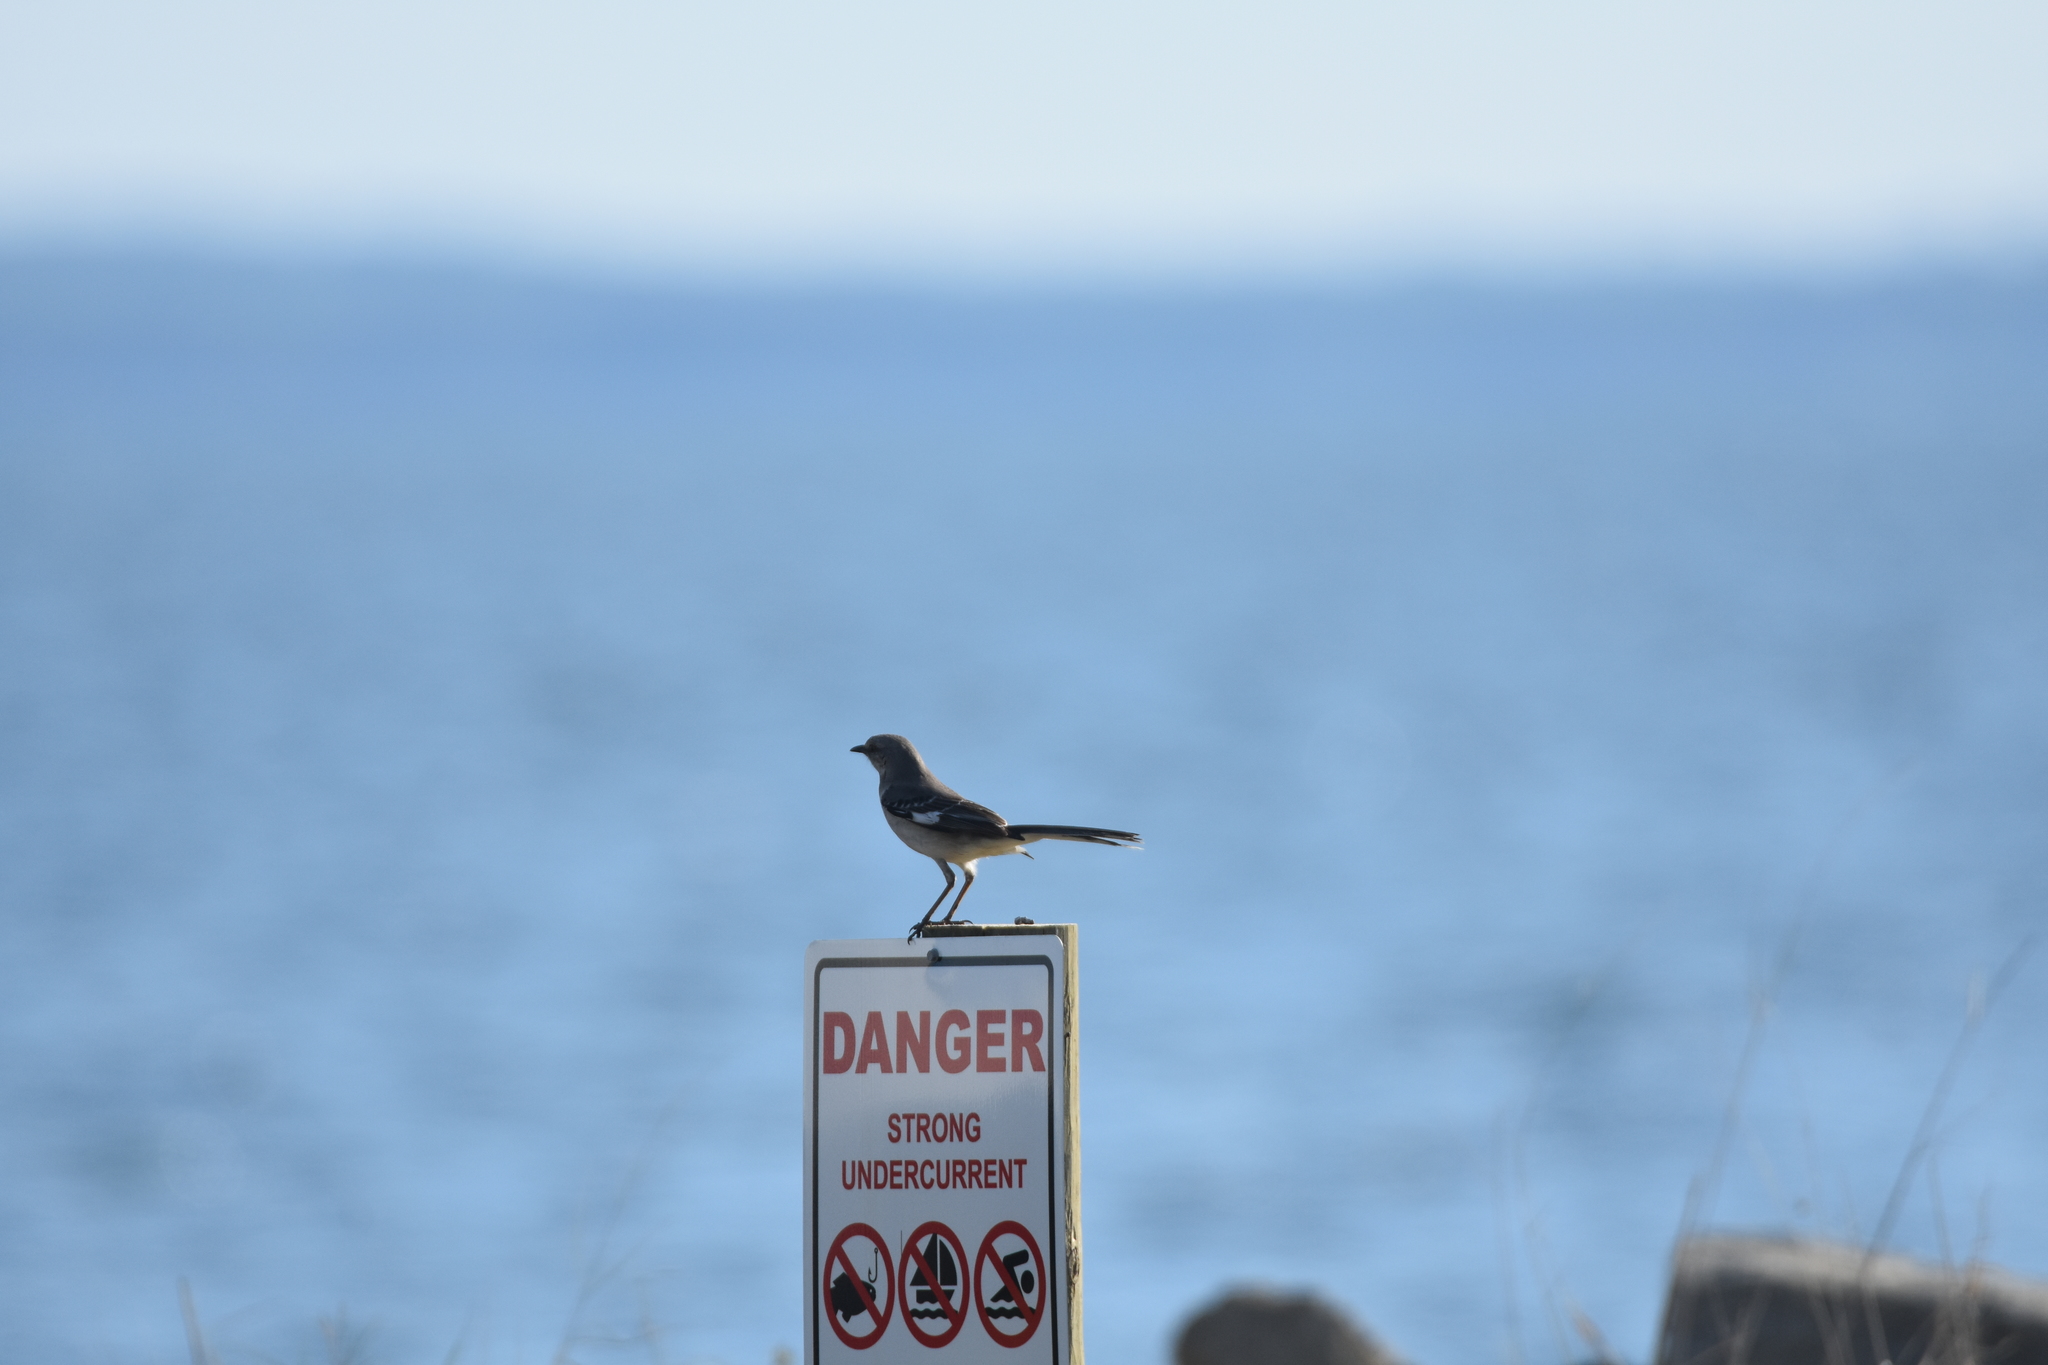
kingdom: Animalia
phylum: Chordata
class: Aves
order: Passeriformes
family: Mimidae
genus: Mimus
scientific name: Mimus polyglottos
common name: Northern mockingbird
